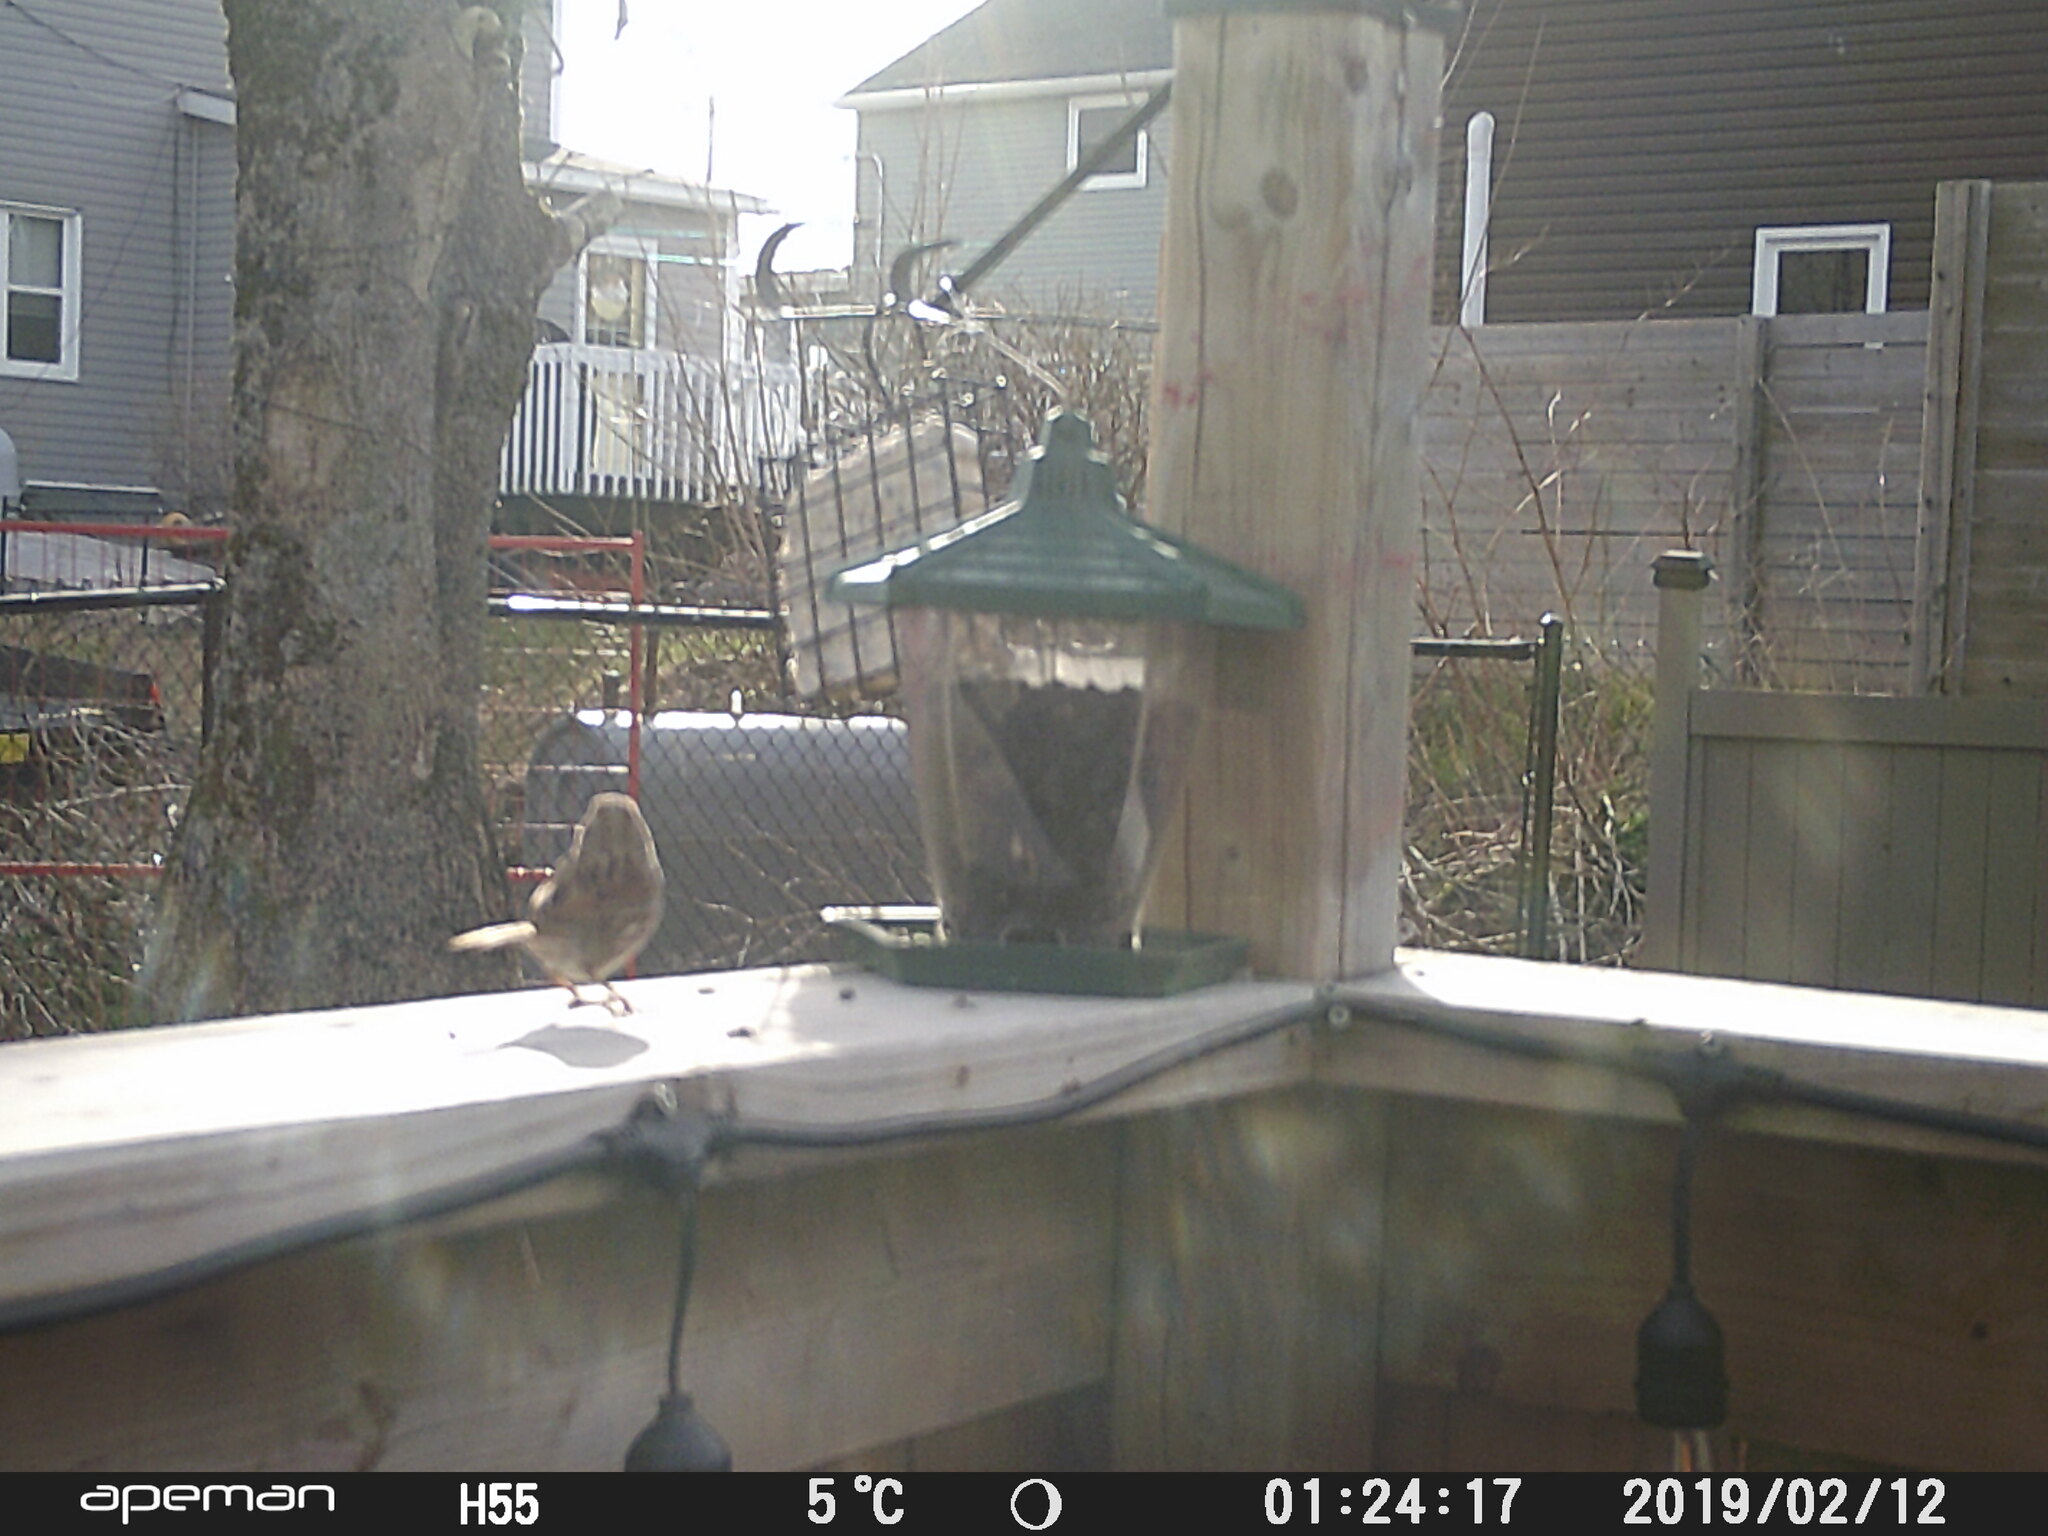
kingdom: Animalia
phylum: Chordata
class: Aves
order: Passeriformes
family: Passerellidae
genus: Melospiza
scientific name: Melospiza melodia
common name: Song sparrow
